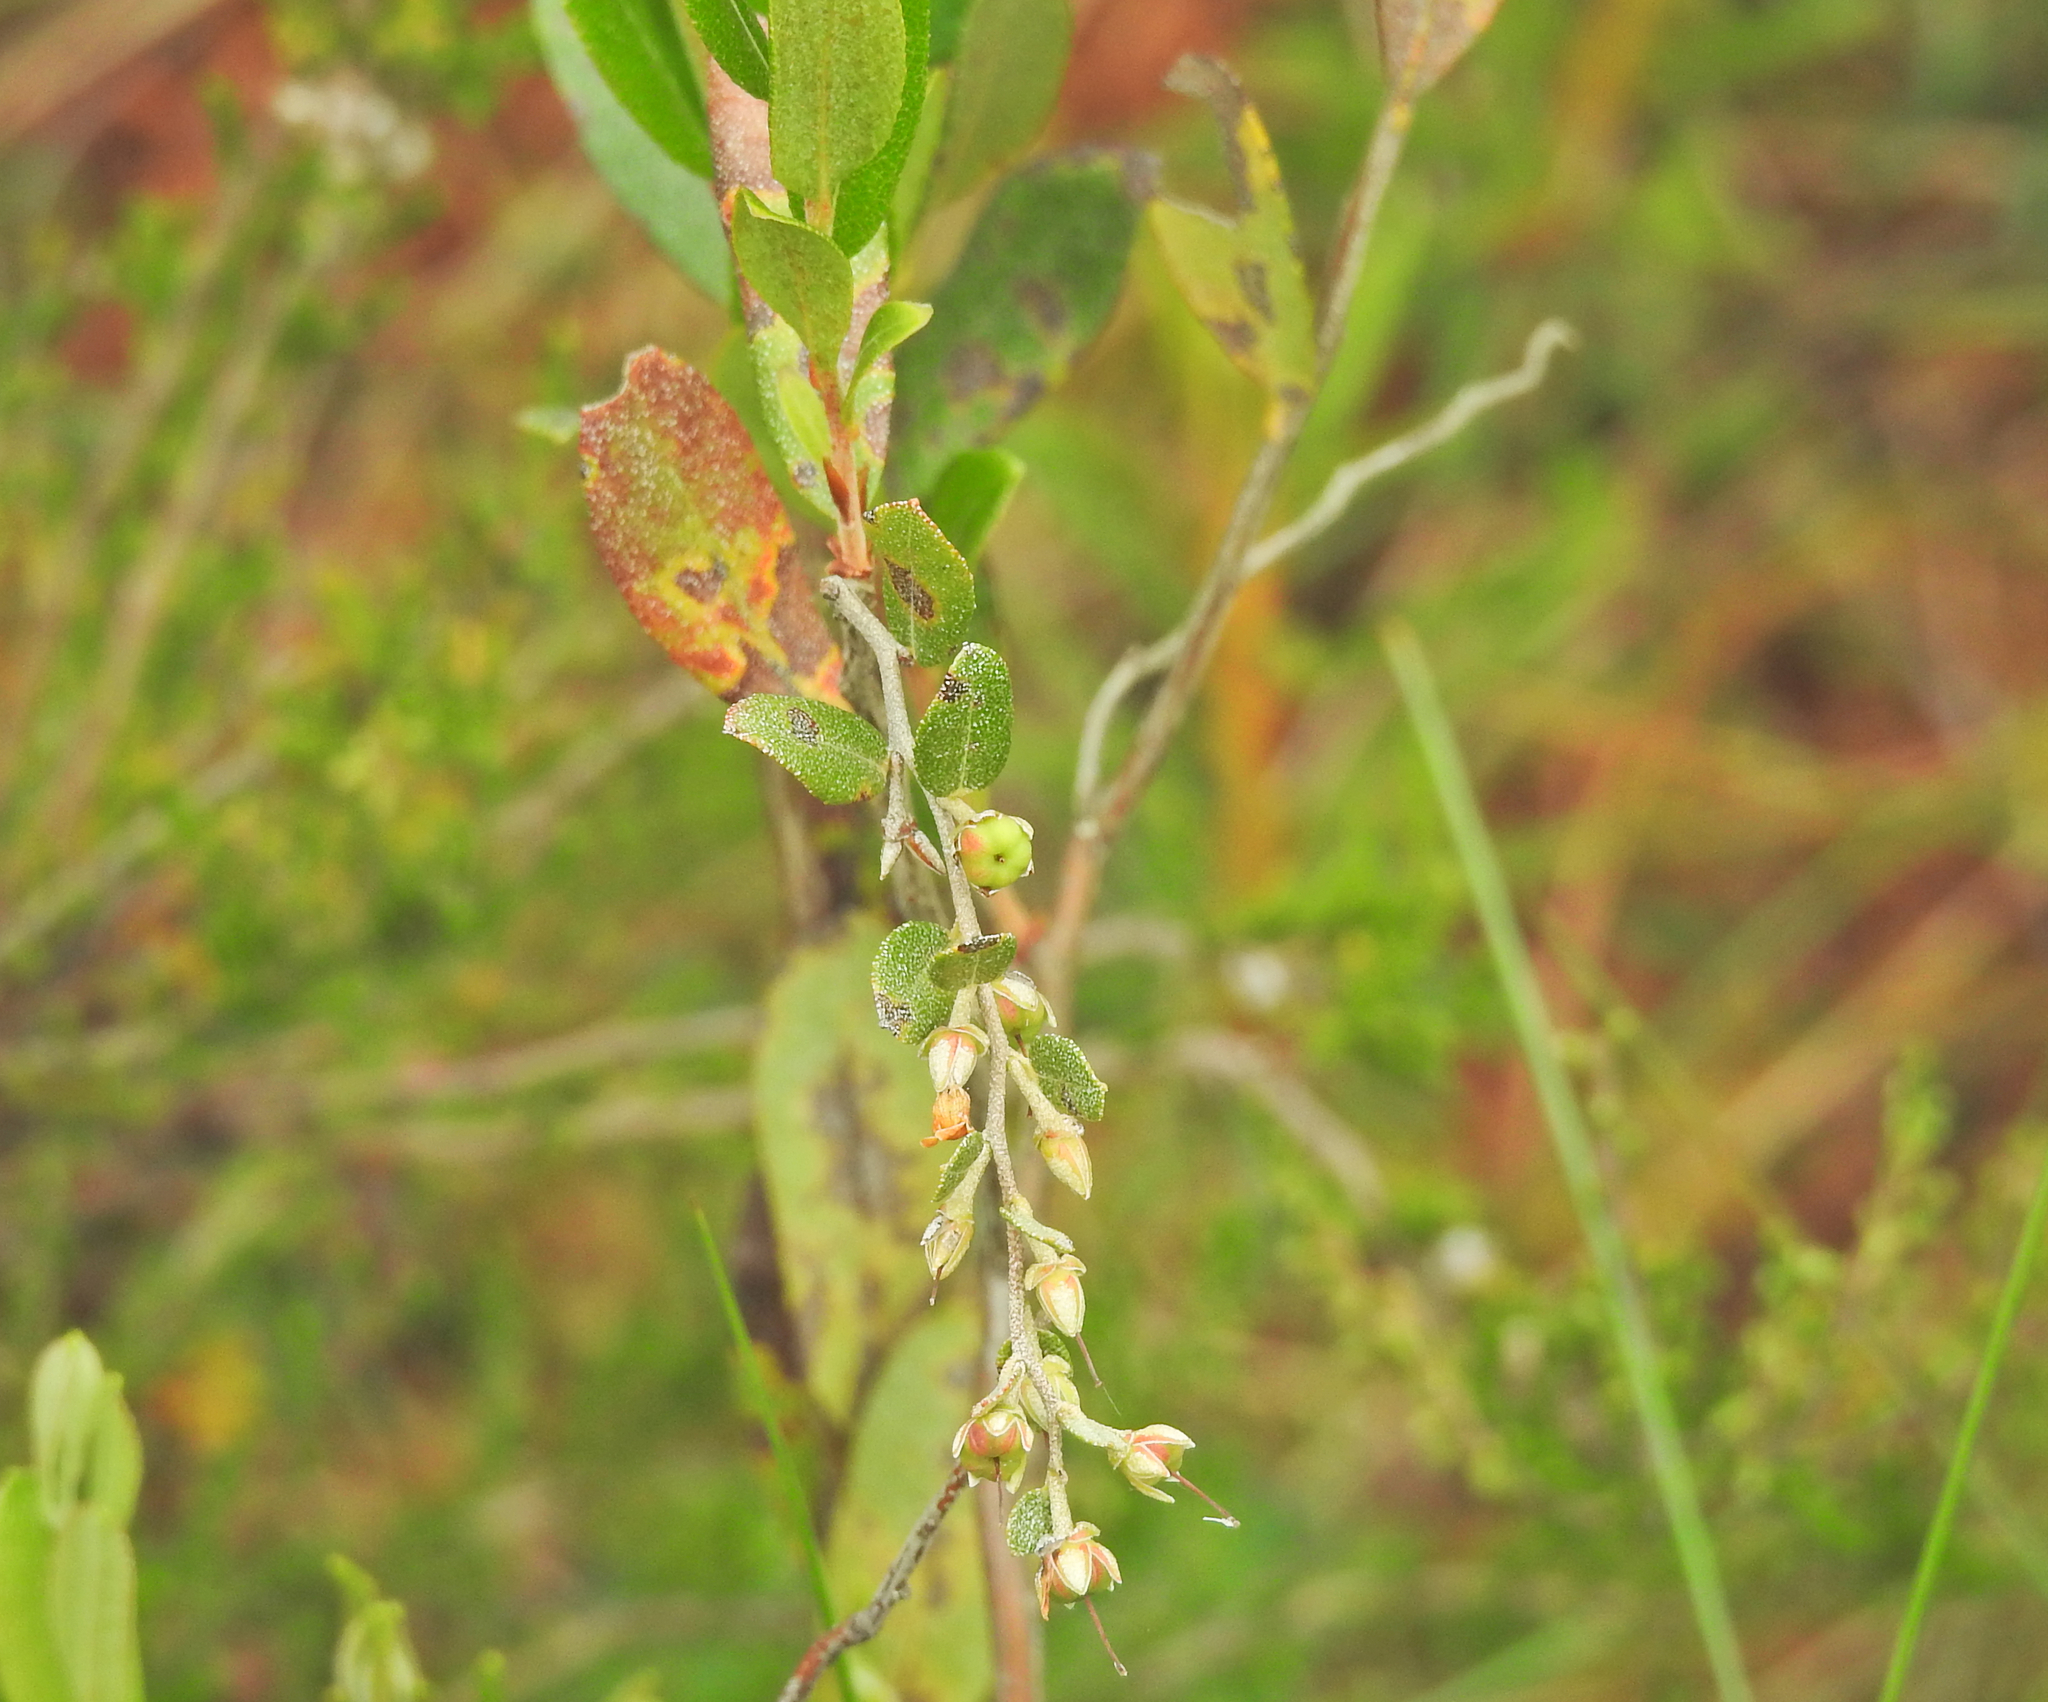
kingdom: Plantae
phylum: Tracheophyta
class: Magnoliopsida
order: Ericales
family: Ericaceae
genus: Chamaedaphne
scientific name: Chamaedaphne calyculata
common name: Leatherleaf
